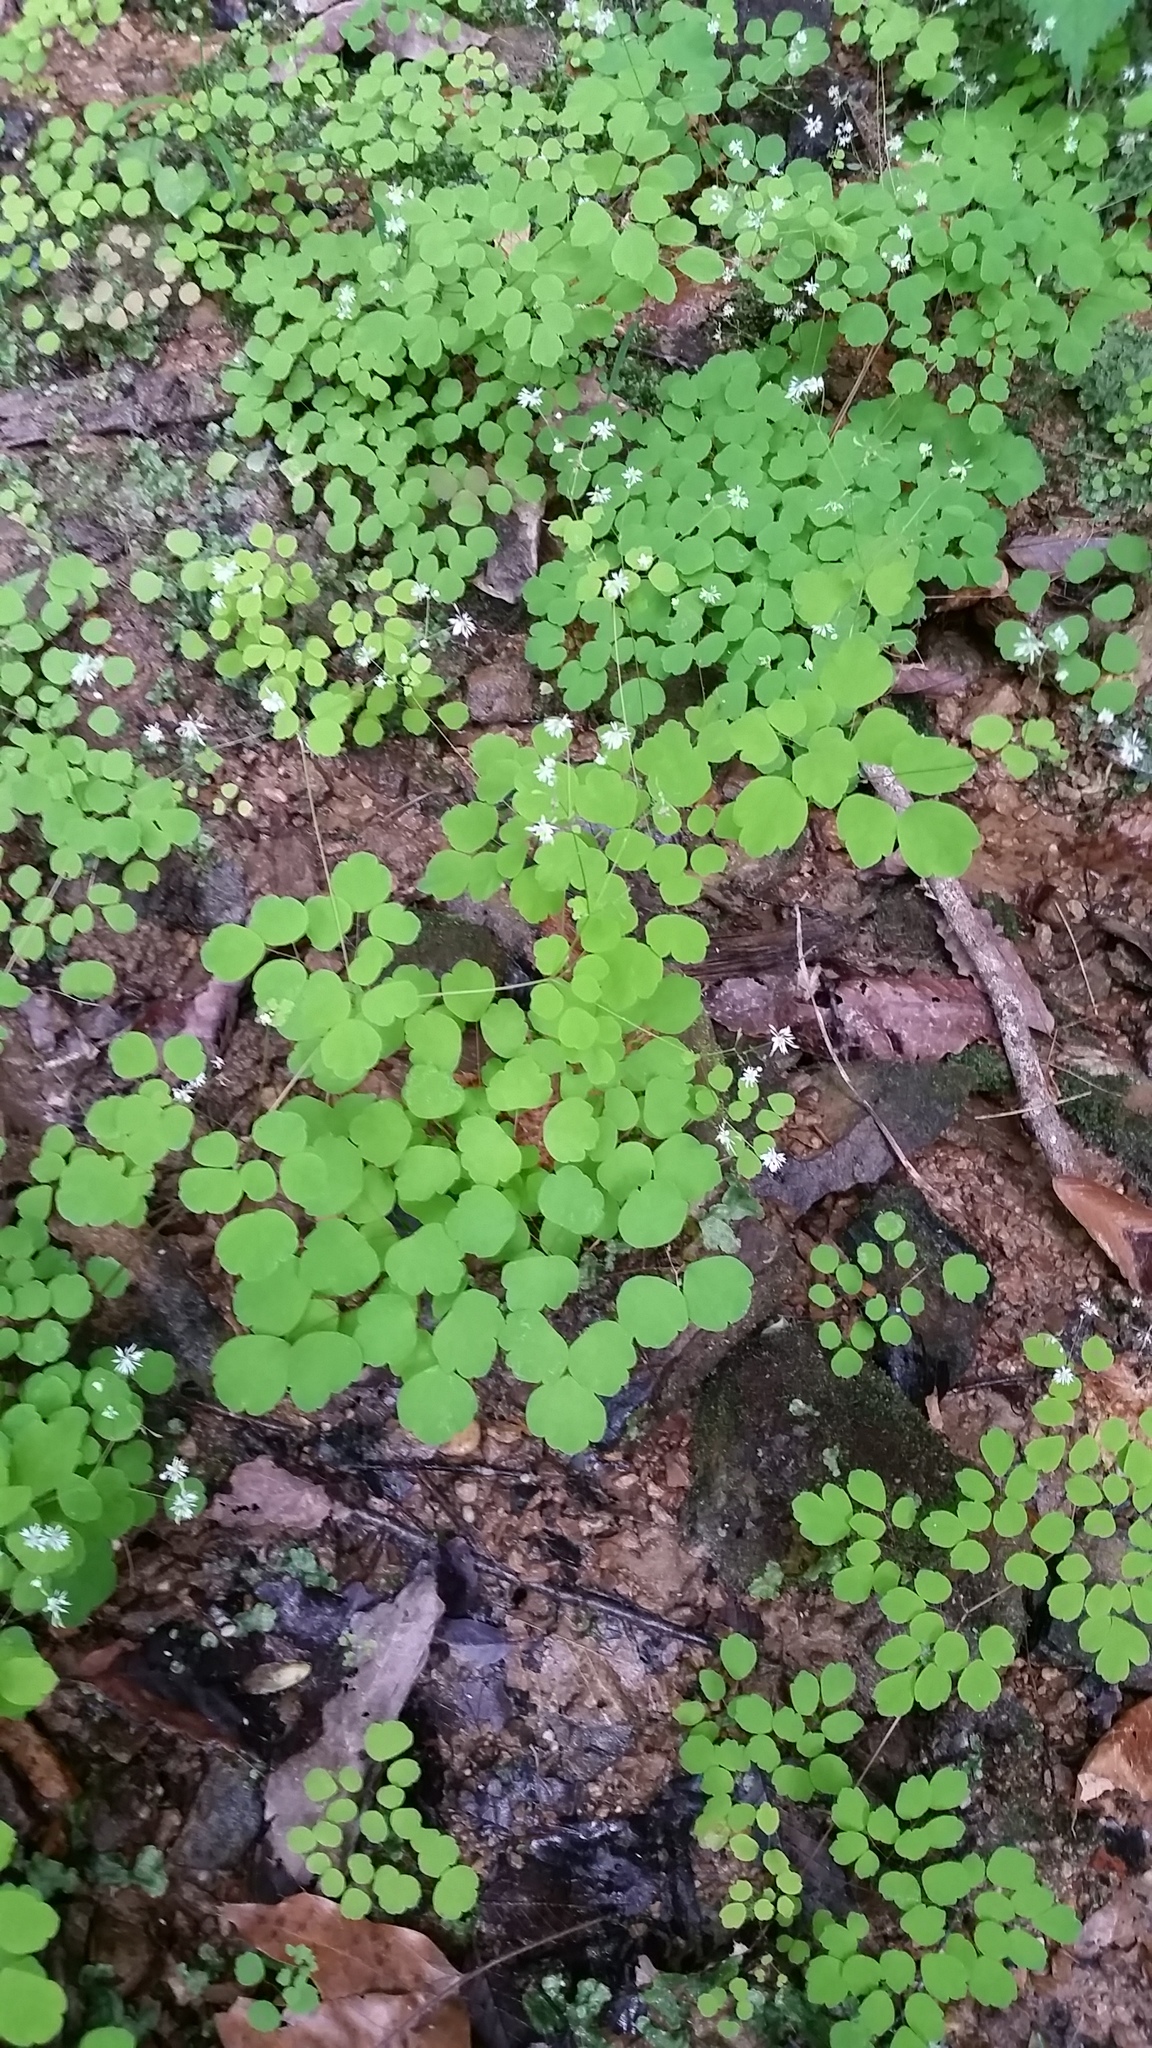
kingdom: Plantae
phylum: Tracheophyta
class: Magnoliopsida
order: Ranunculales
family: Ranunculaceae
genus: Thalictrum
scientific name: Thalictrum clavatum
